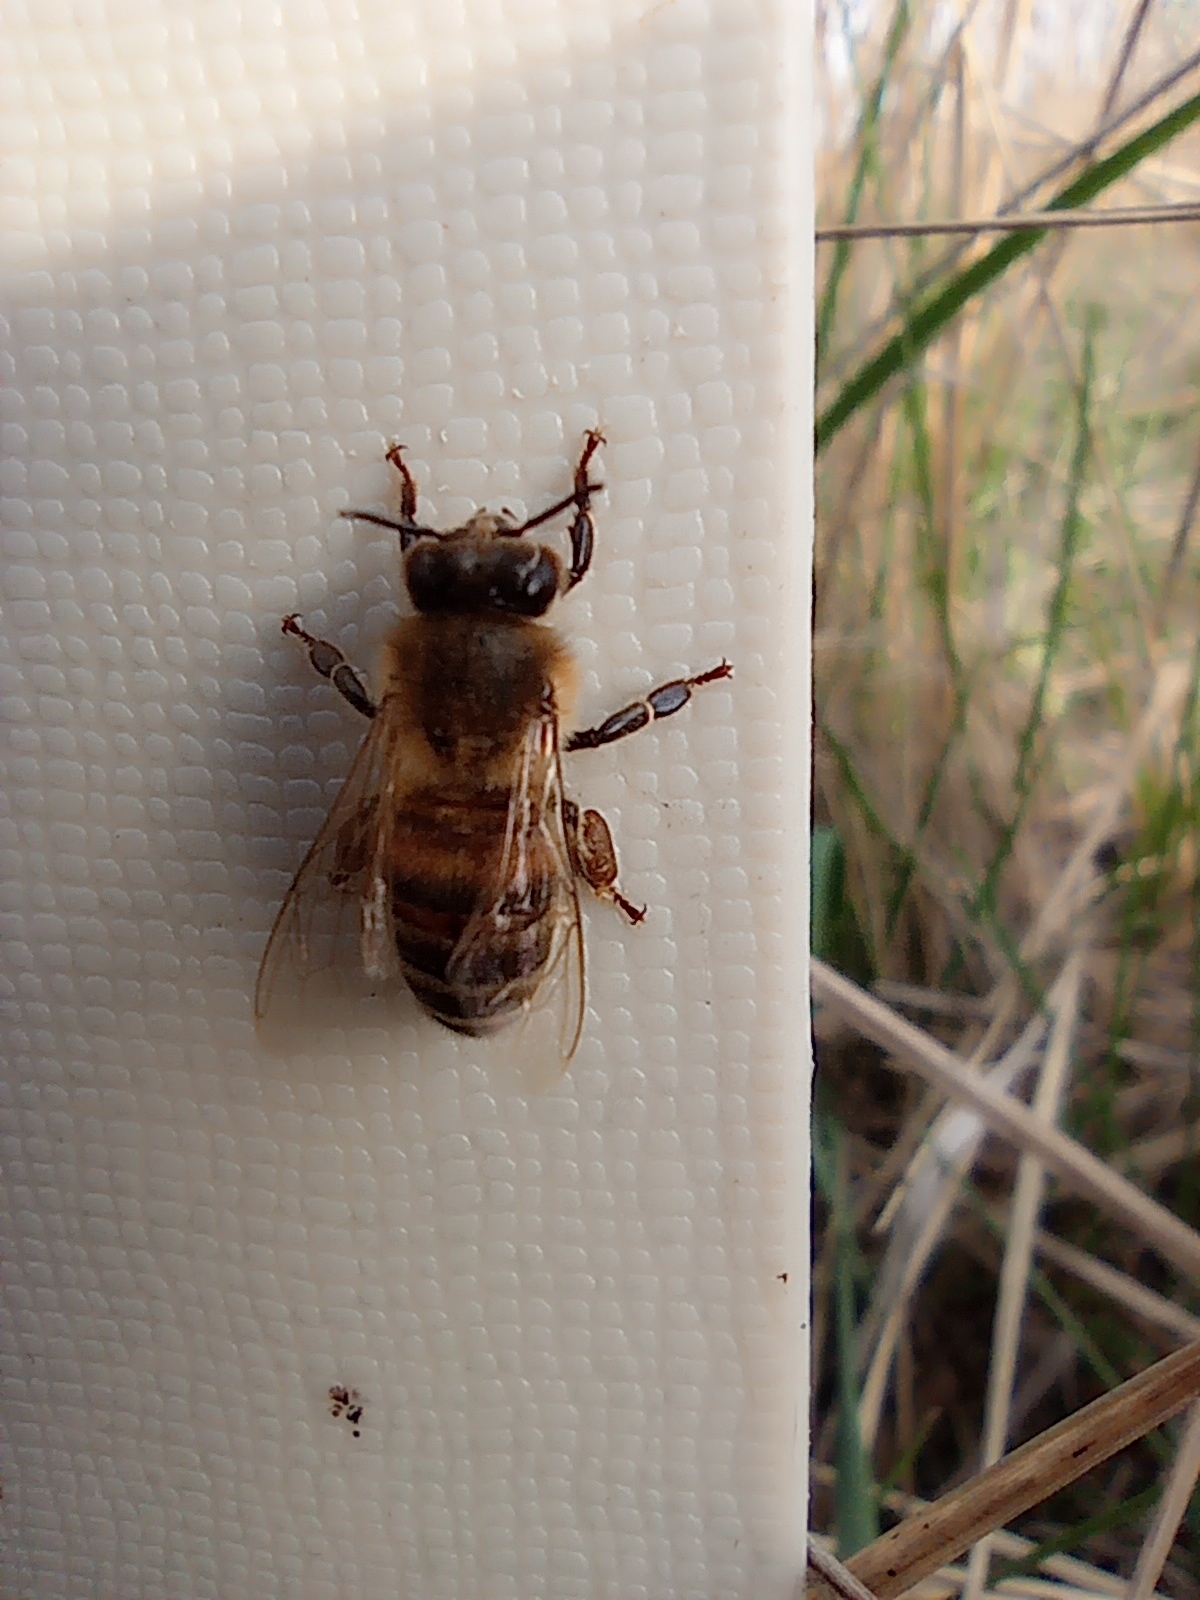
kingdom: Animalia
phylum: Arthropoda
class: Insecta
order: Hymenoptera
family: Apidae
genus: Apis
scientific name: Apis mellifera
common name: Honey bee
